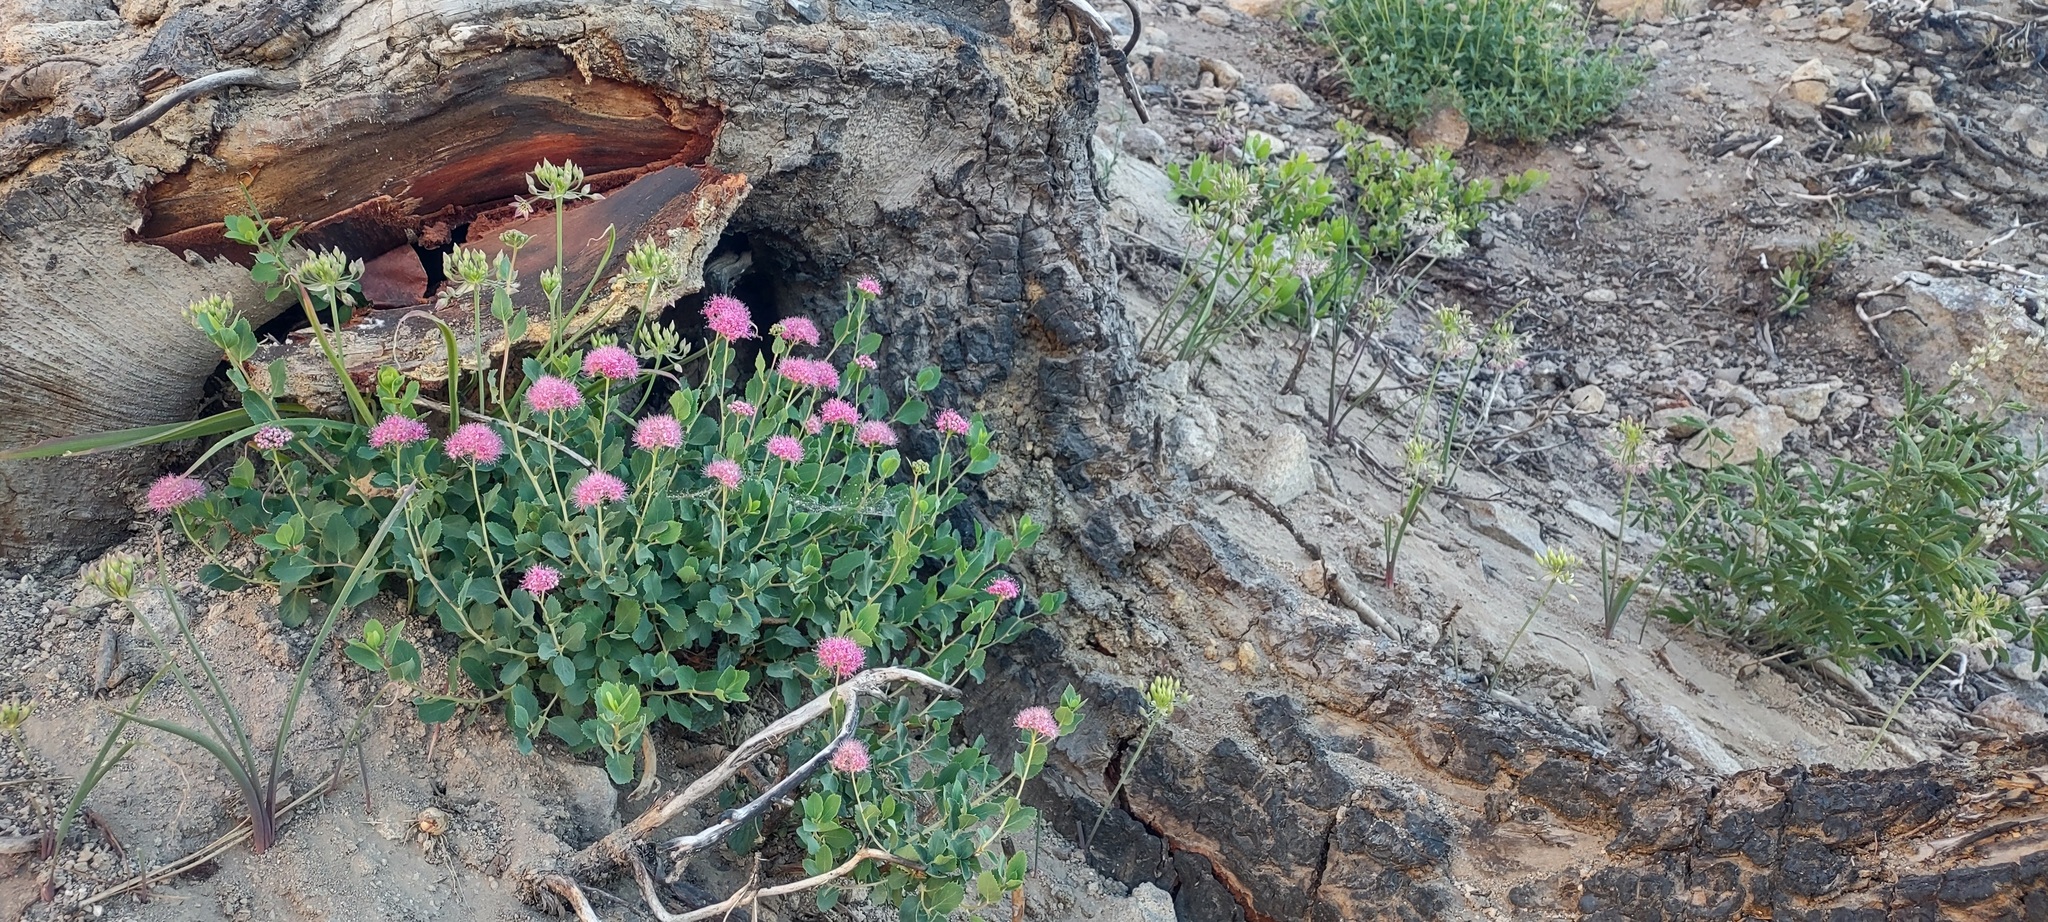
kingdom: Plantae
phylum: Tracheophyta
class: Magnoliopsida
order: Rosales
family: Rosaceae
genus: Spiraea
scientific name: Spiraea splendens
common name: Subalpine meadowsweet
